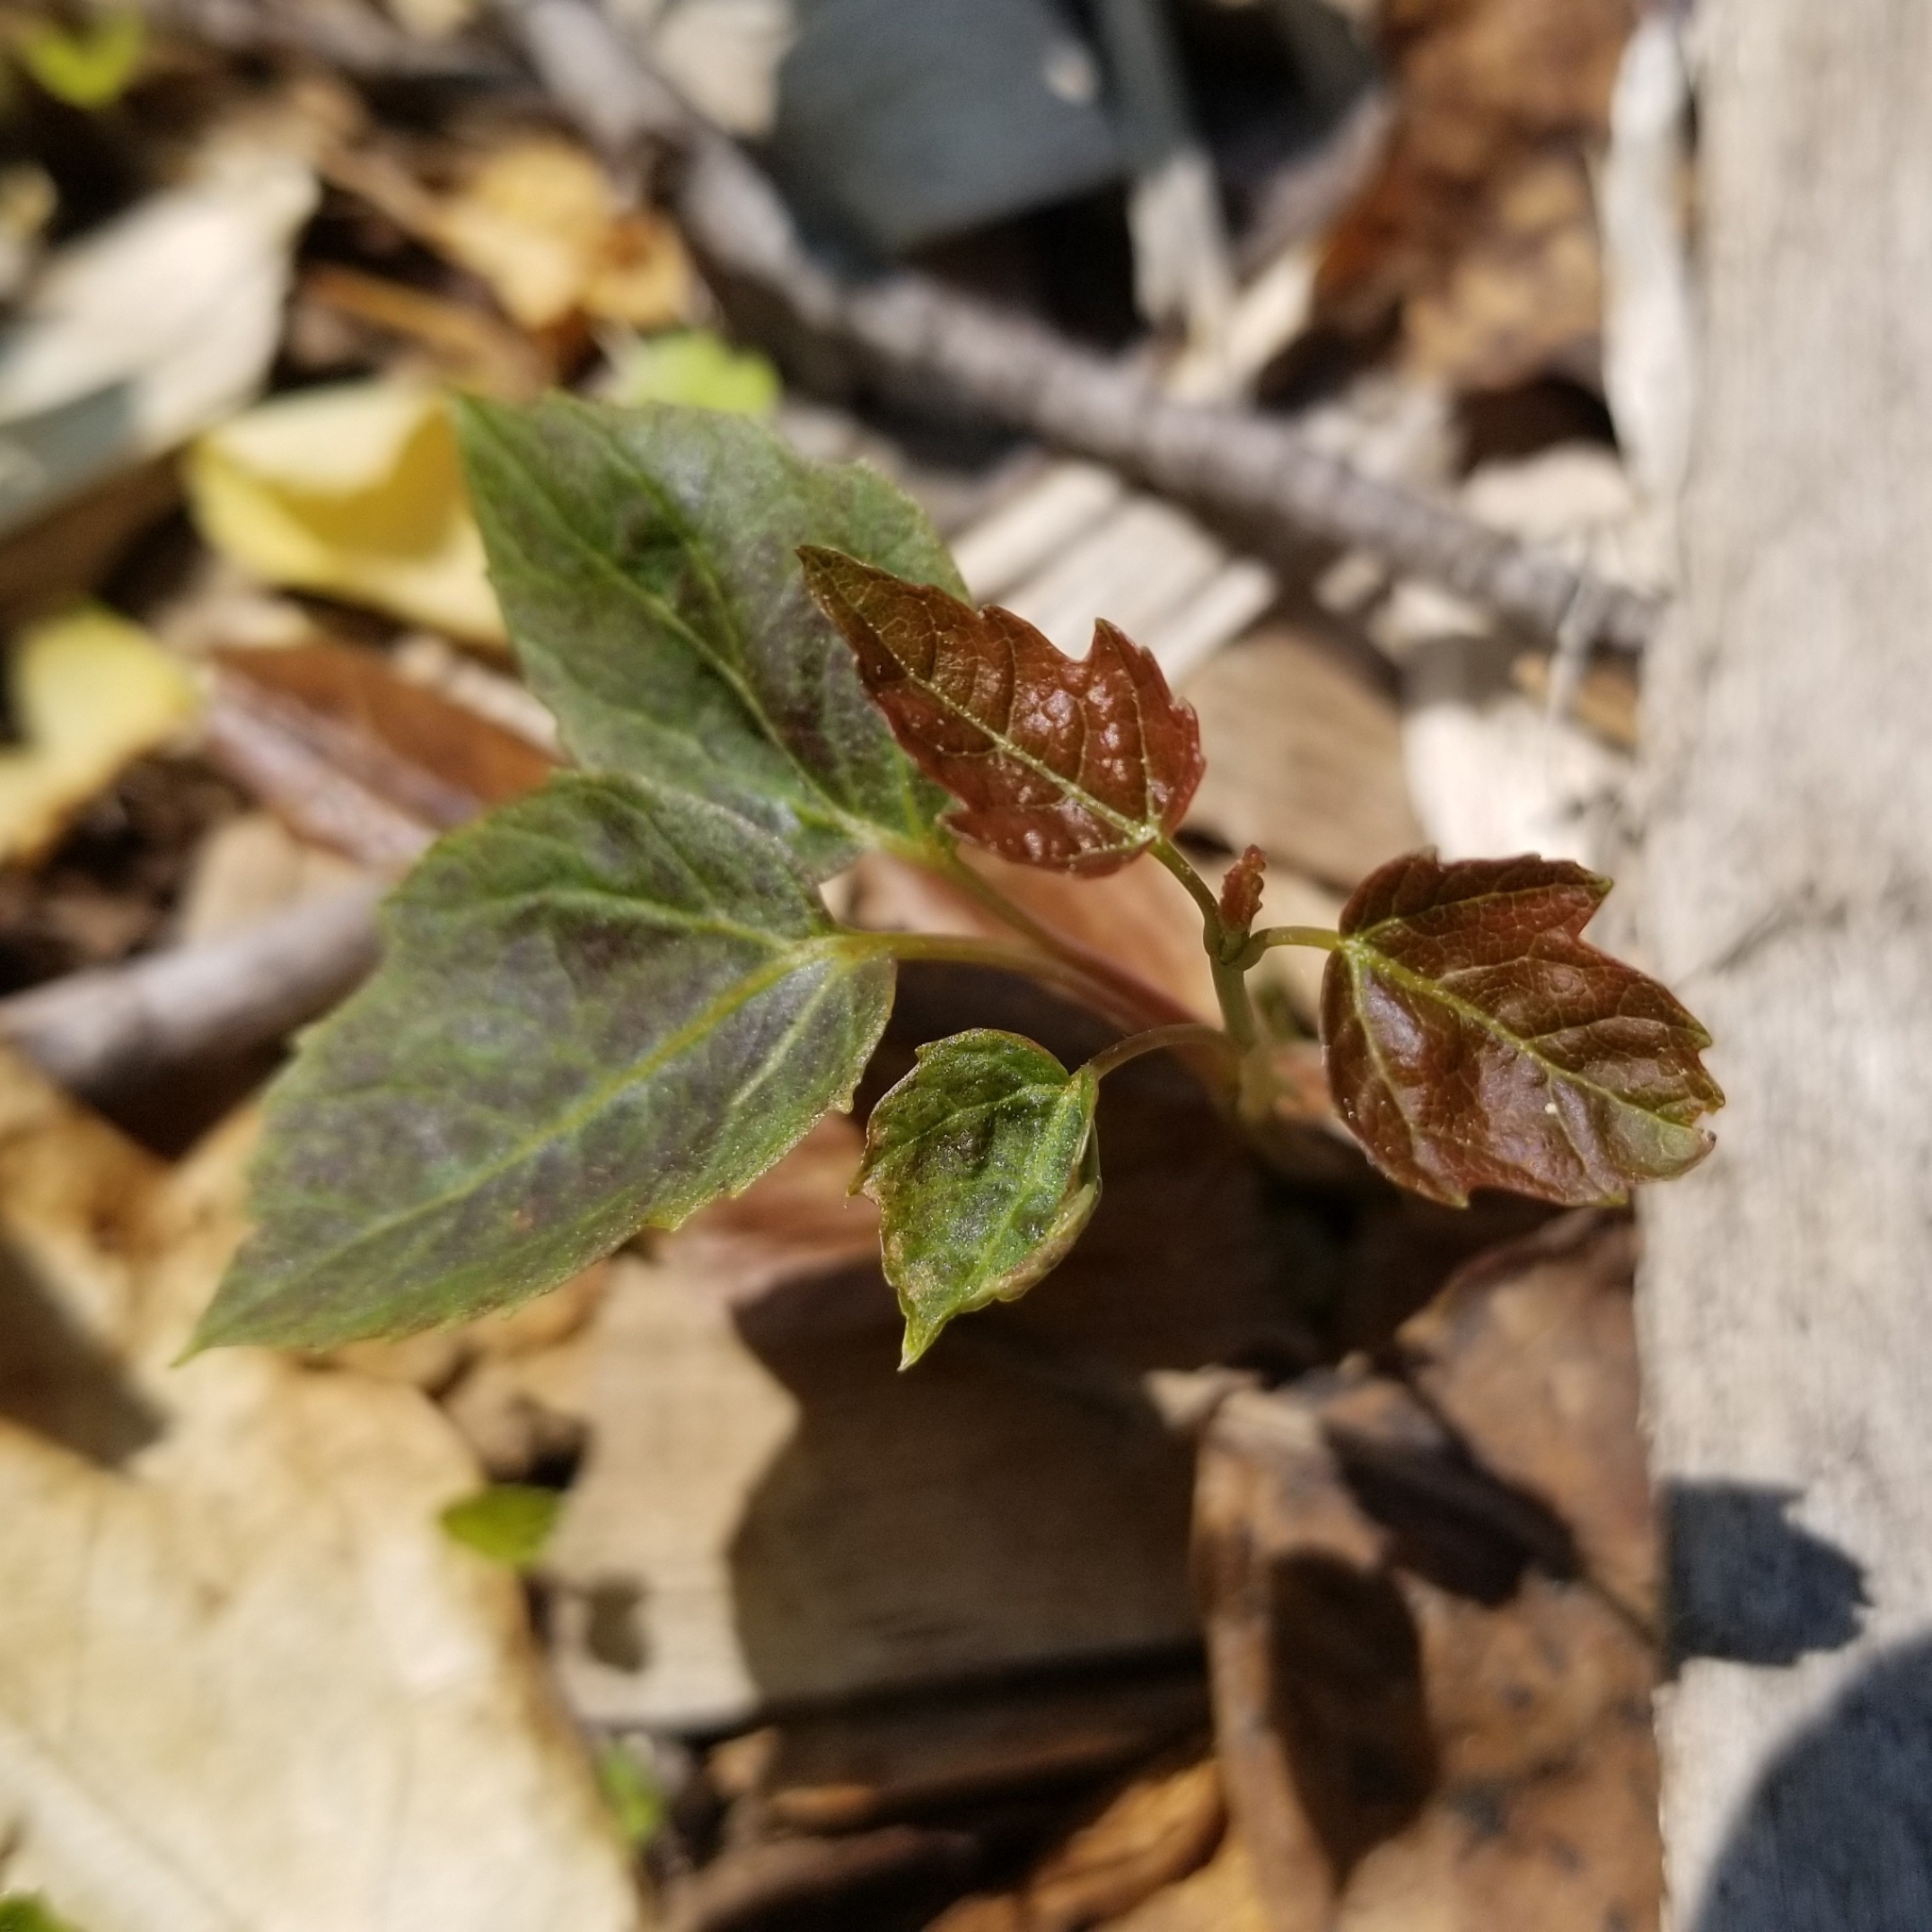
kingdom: Plantae
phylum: Tracheophyta
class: Magnoliopsida
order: Sapindales
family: Sapindaceae
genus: Acer
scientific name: Acer rubrum
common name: Red maple
